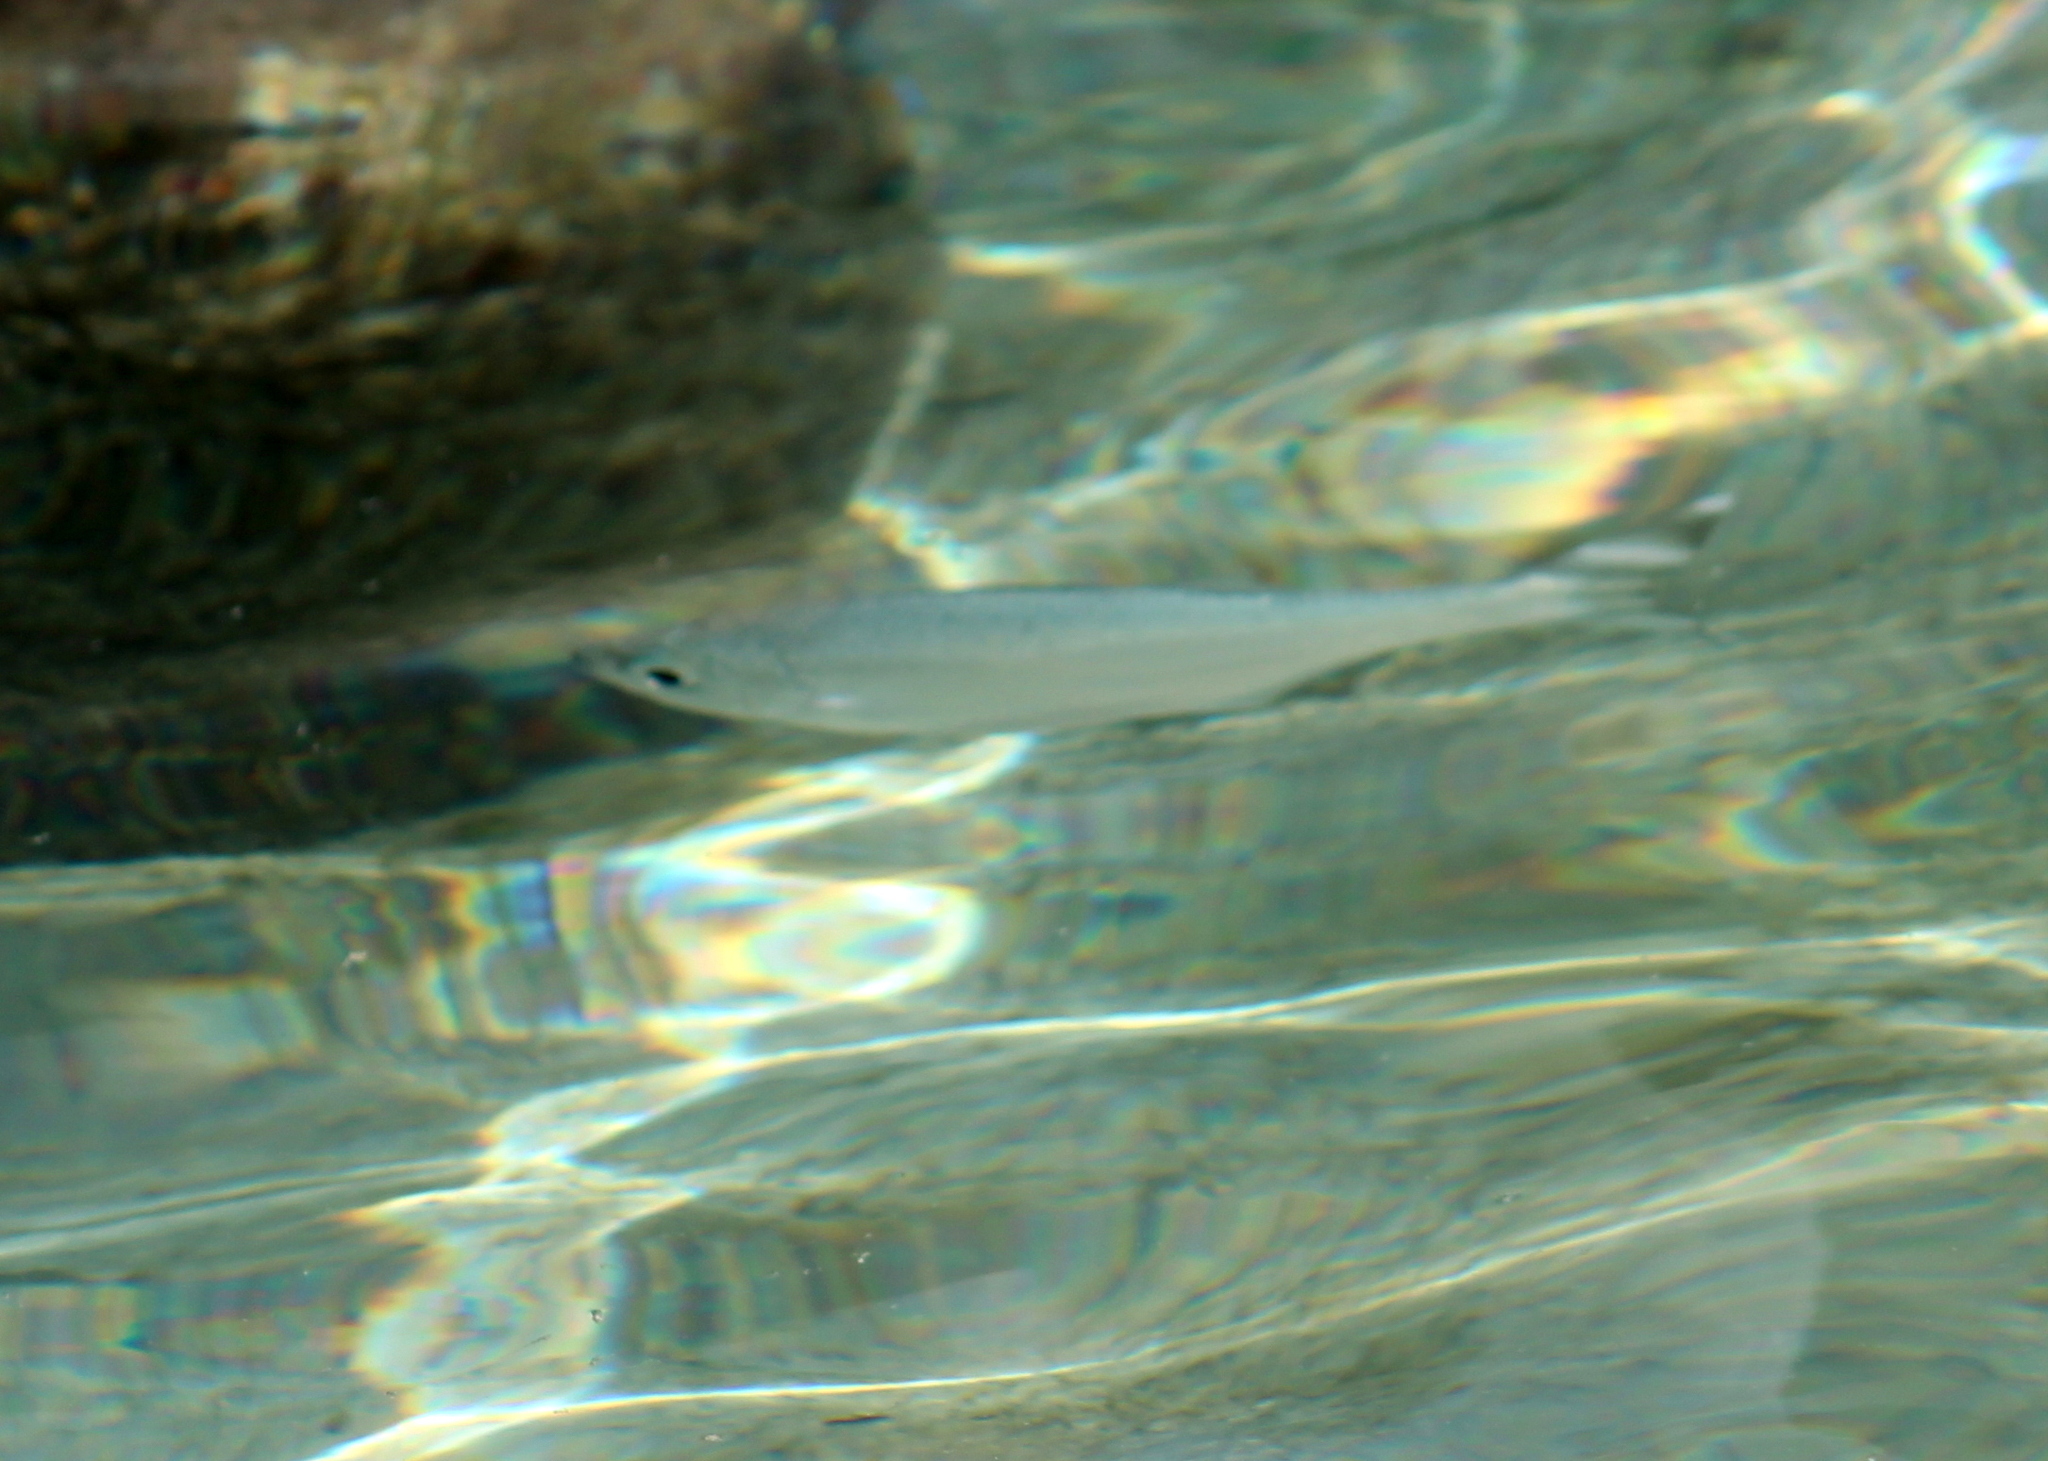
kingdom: Animalia
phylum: Chordata
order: Perciformes
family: Kuhliidae
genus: Kuhlia
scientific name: Kuhlia mugil
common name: Barred flagtail
